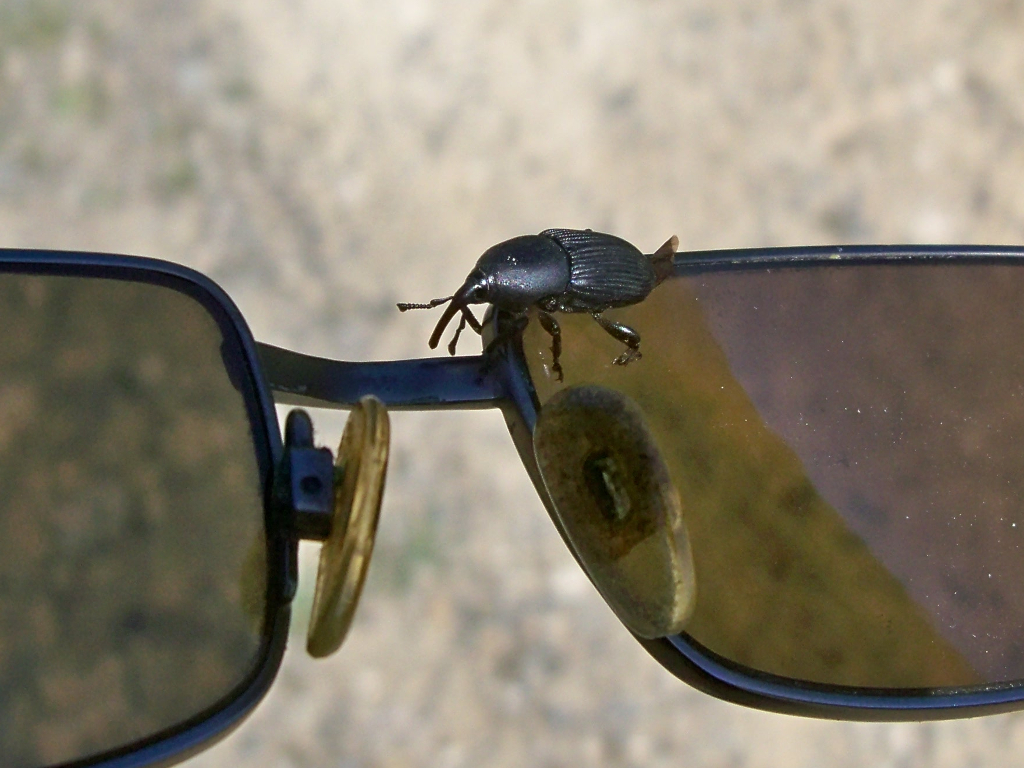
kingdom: Animalia
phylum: Arthropoda
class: Insecta
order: Coleoptera
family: Dryophthoridae
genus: Scyphophorus
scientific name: Scyphophorus acupunctatus
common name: Weevil
